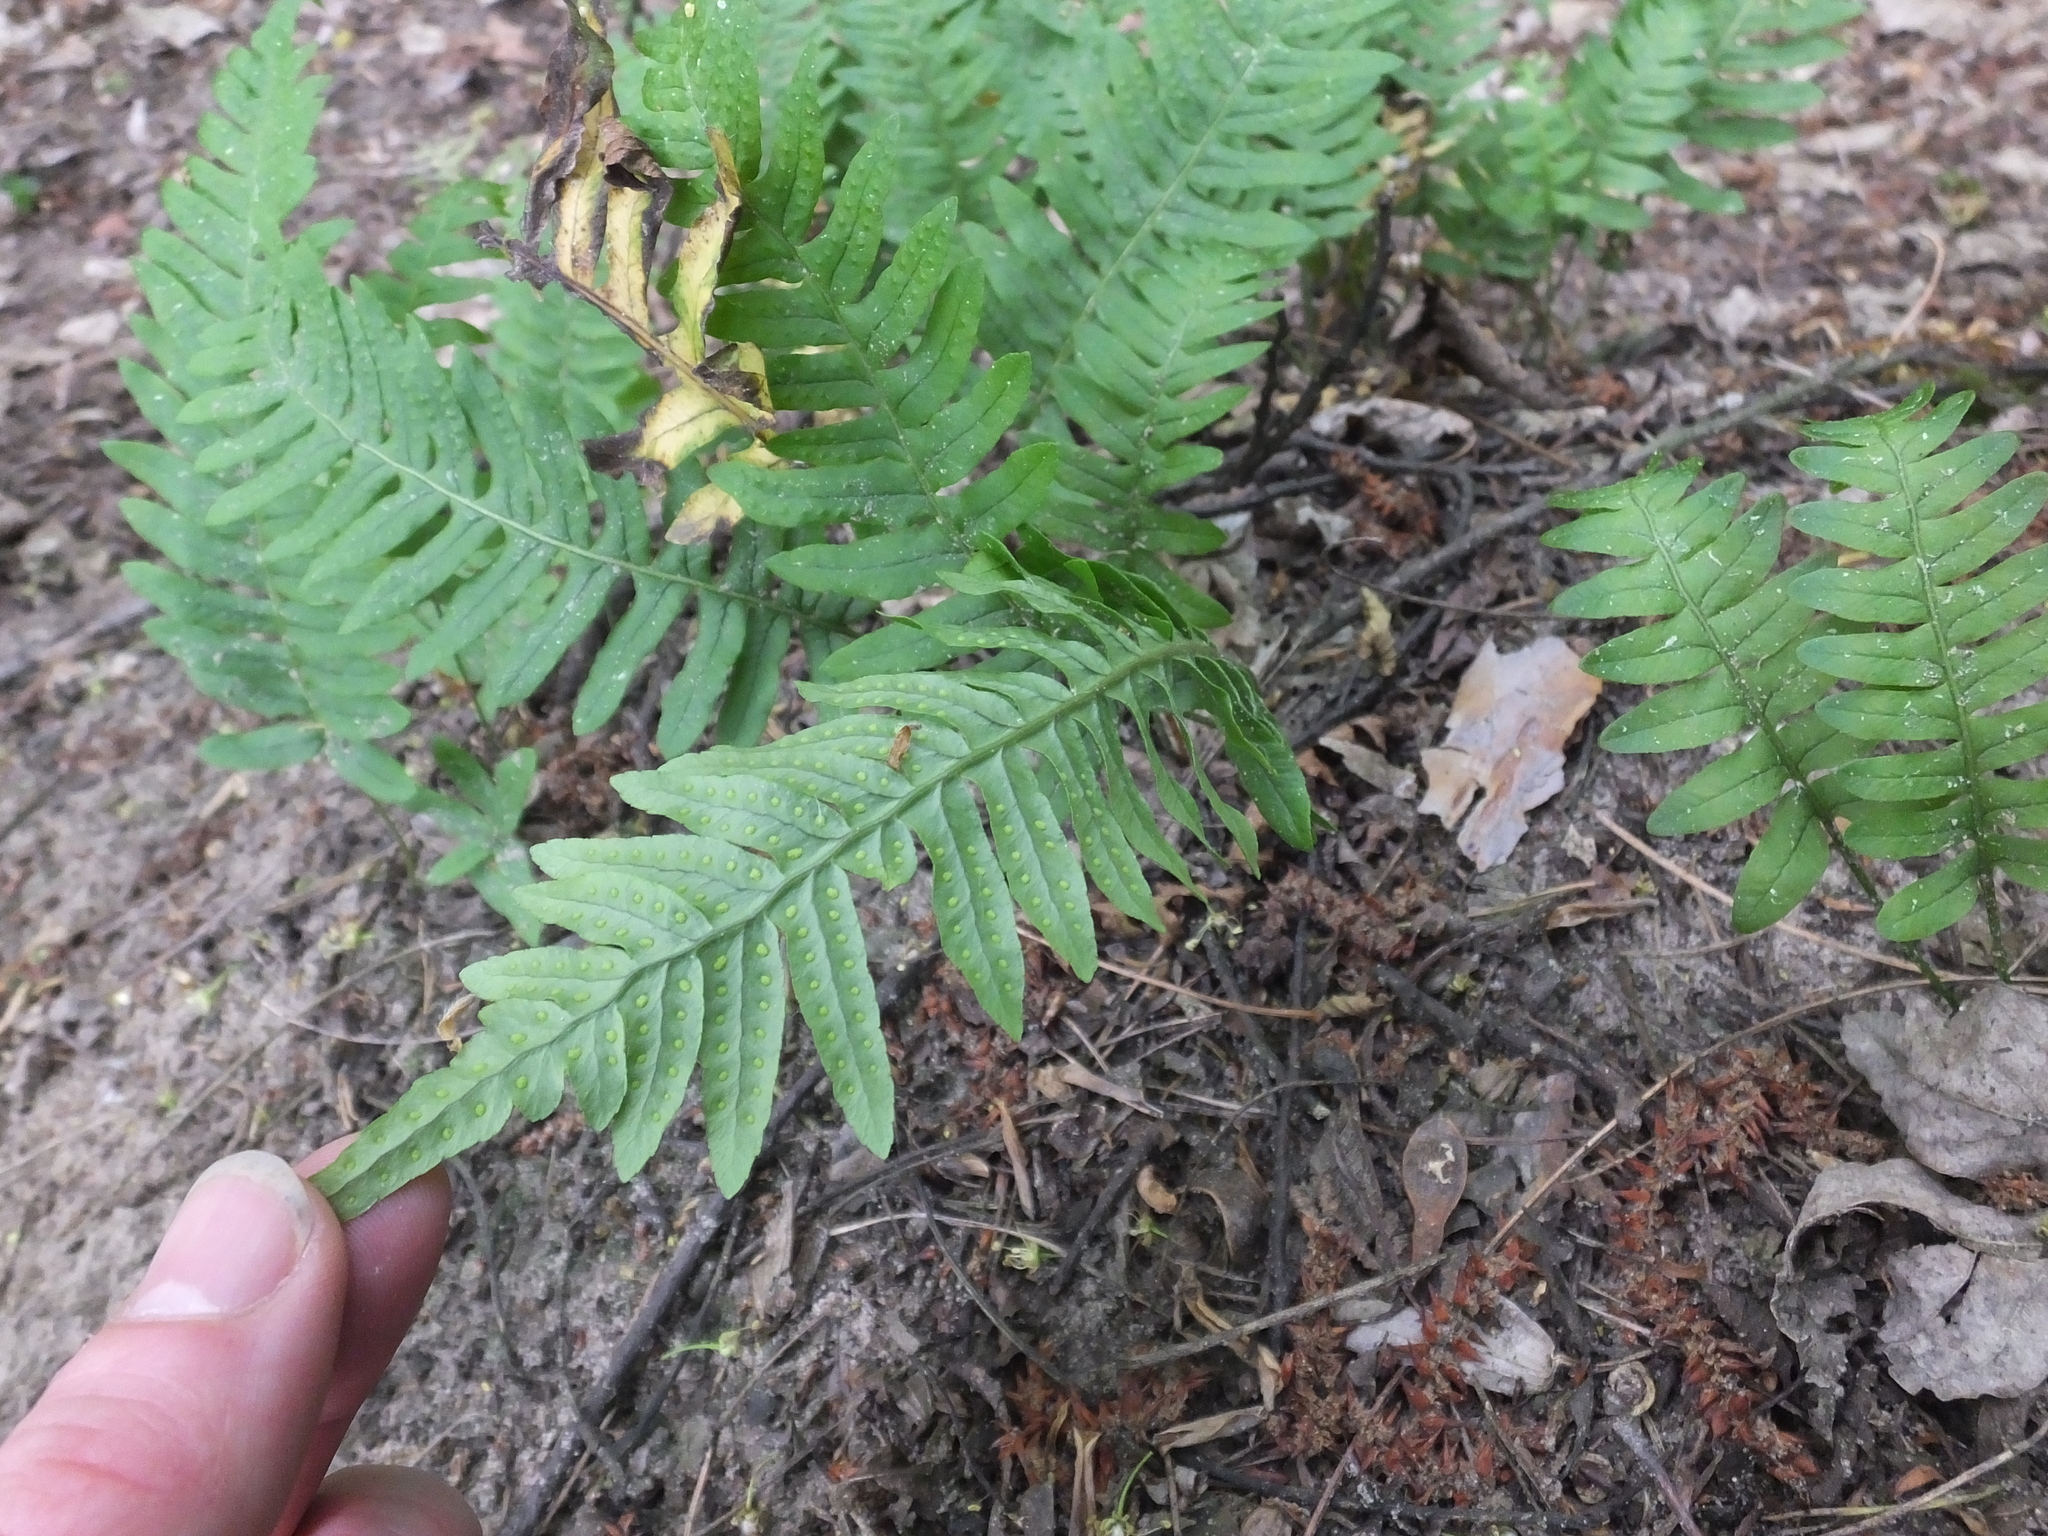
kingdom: Plantae
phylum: Tracheophyta
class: Polypodiopsida
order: Polypodiales
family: Polypodiaceae
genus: Polypodium
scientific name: Polypodium vulgare
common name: Common polypody
